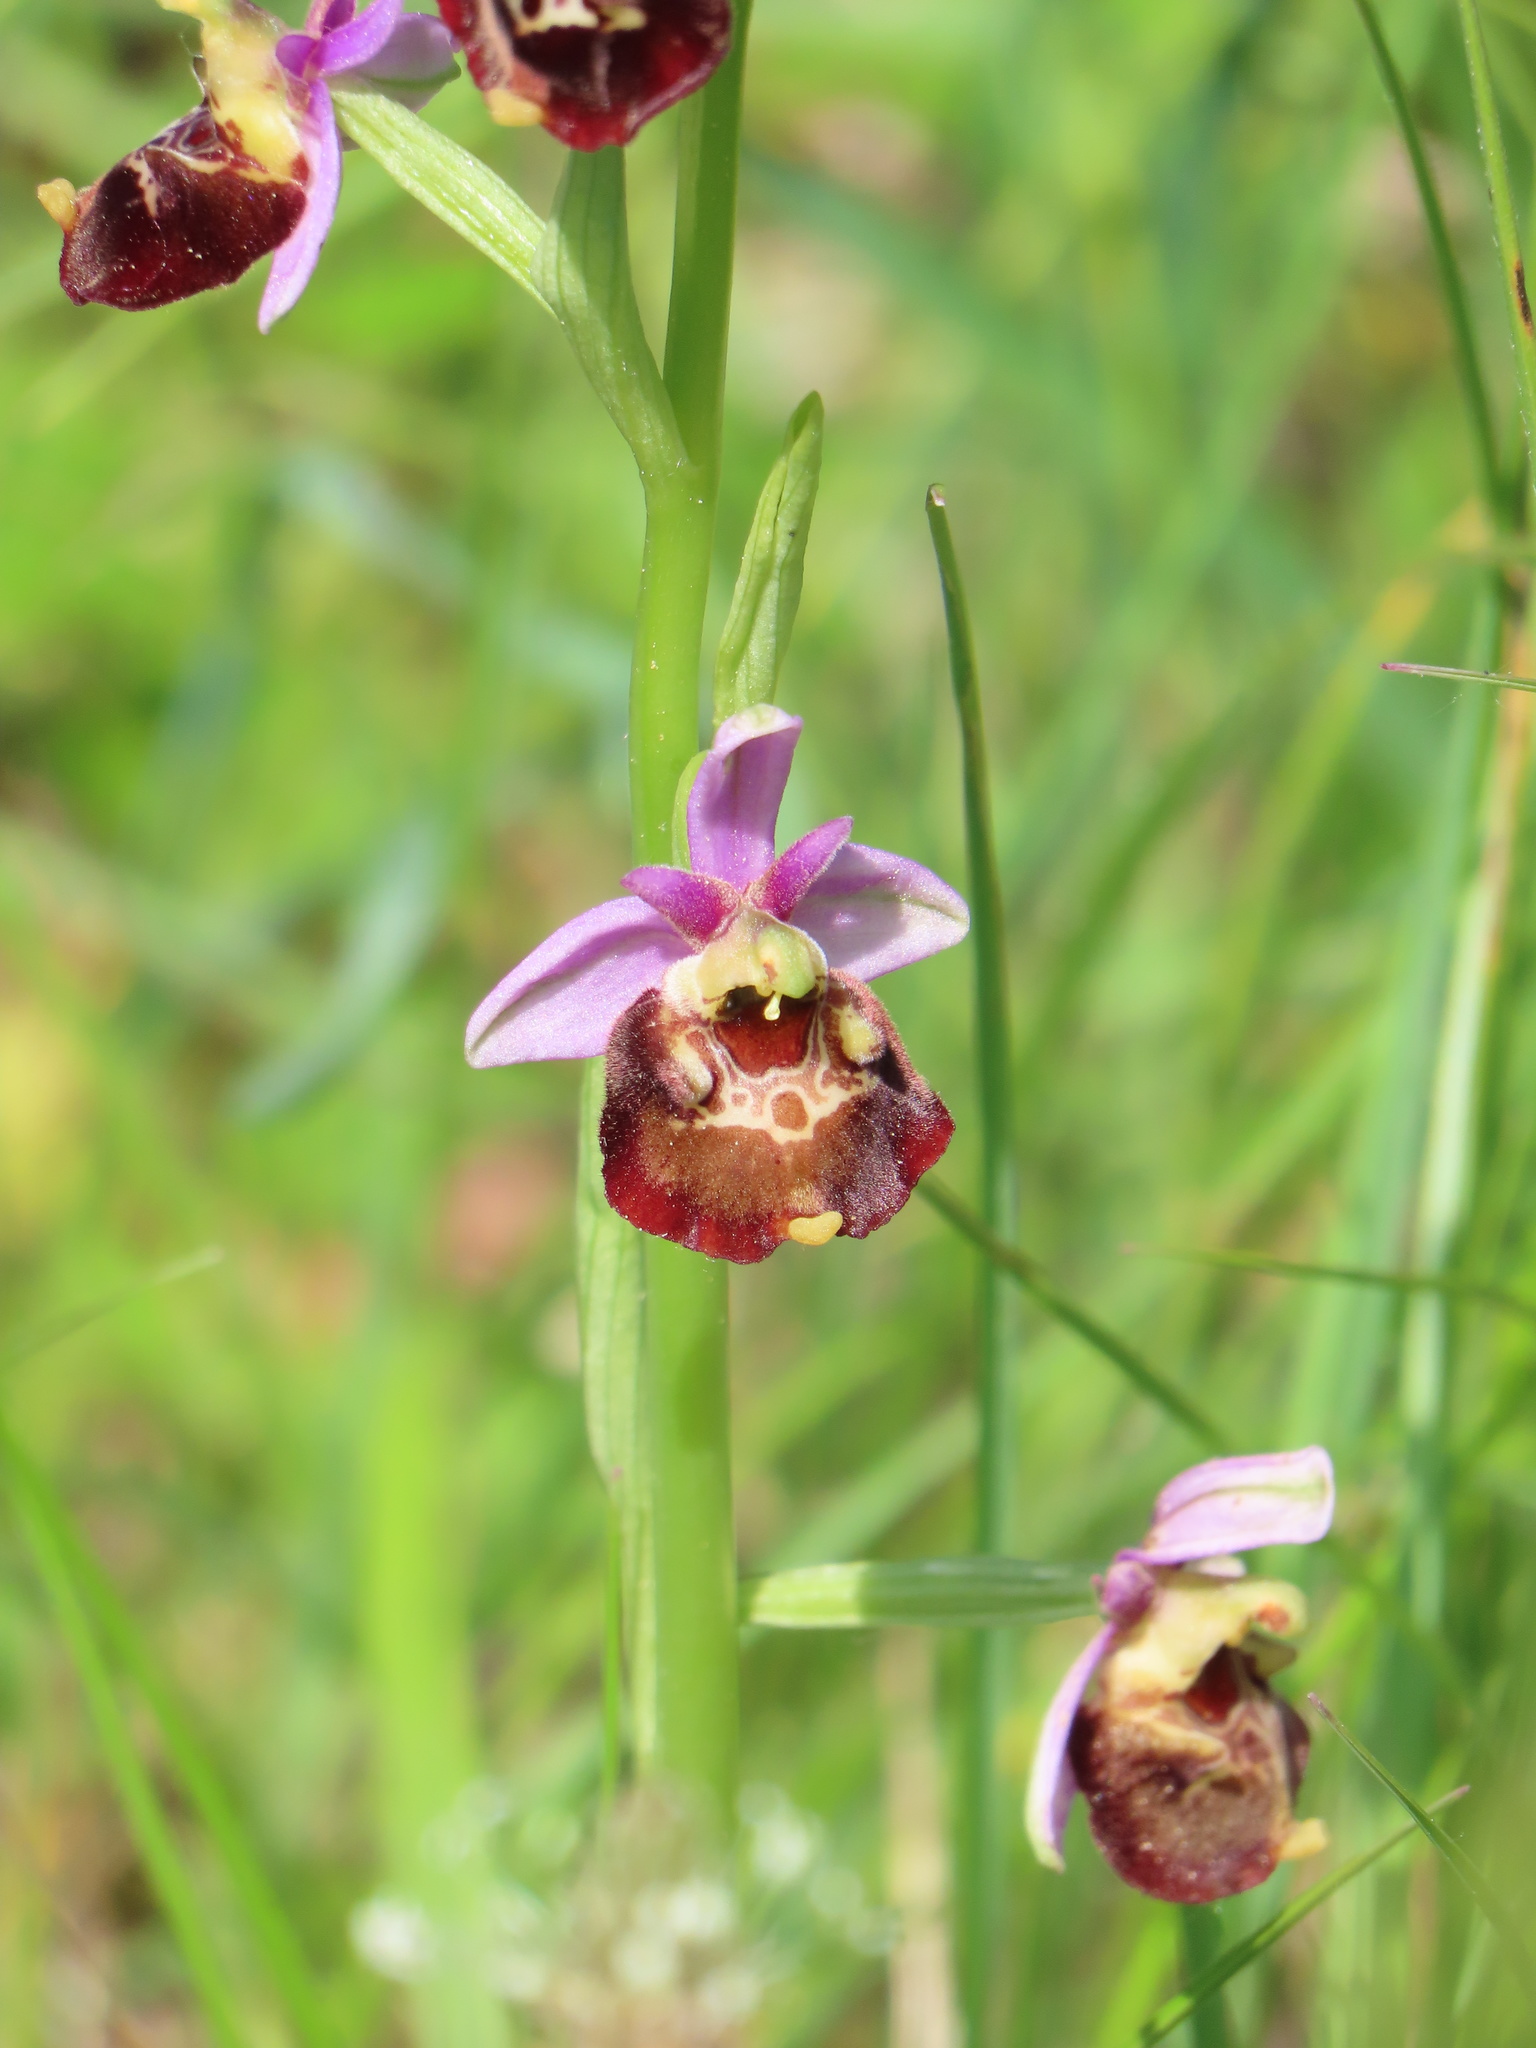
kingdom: Plantae
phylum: Tracheophyta
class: Liliopsida
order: Asparagales
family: Orchidaceae
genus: Ophrys
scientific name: Ophrys holosericea
